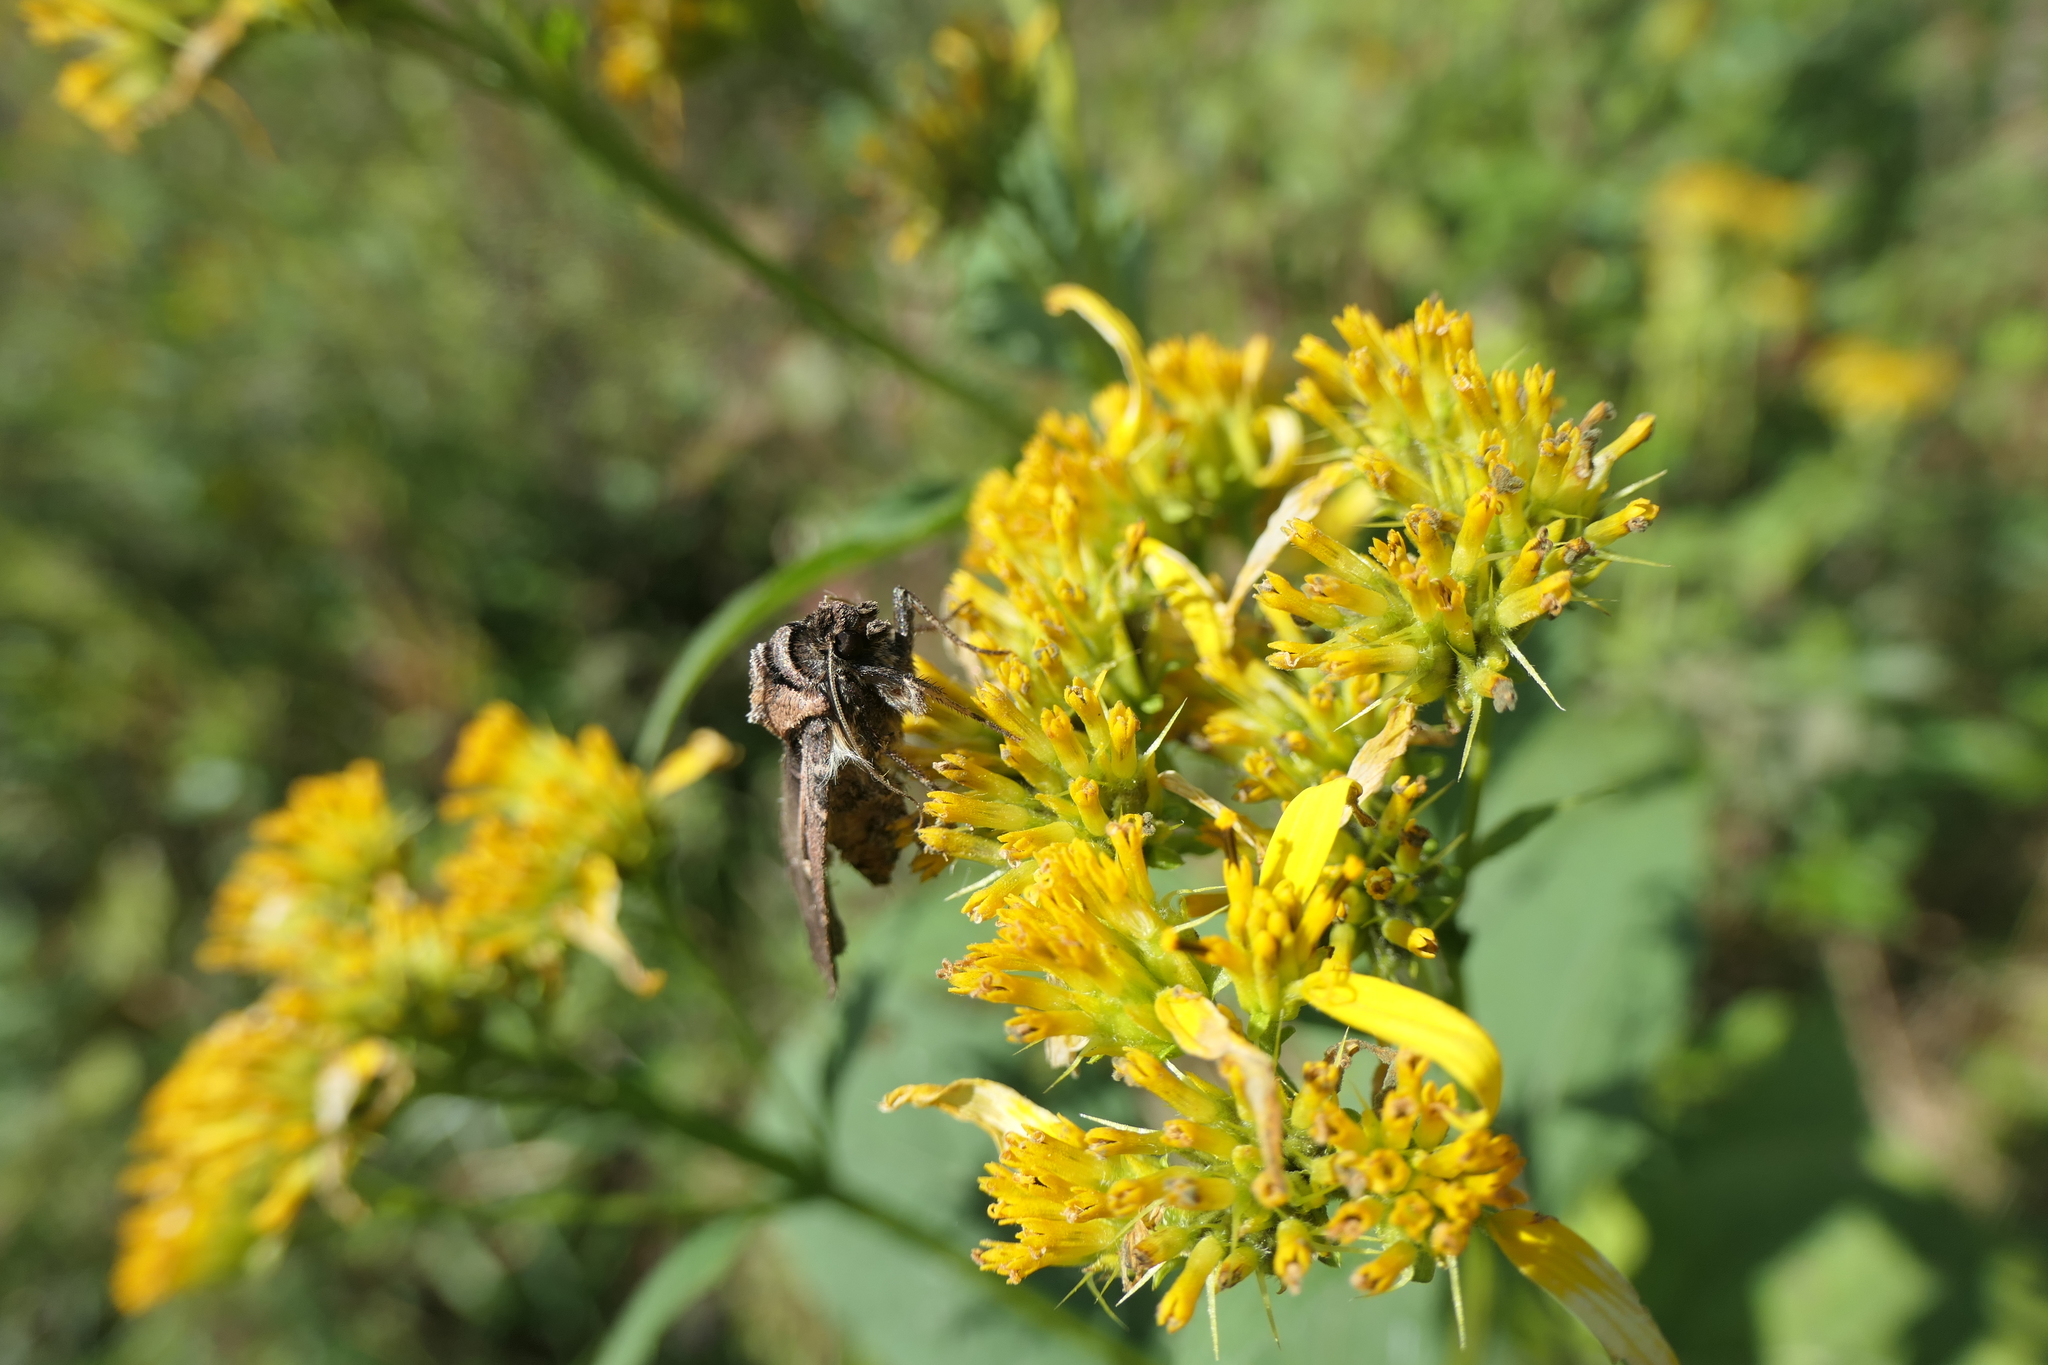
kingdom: Animalia
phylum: Arthropoda
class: Insecta
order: Lepidoptera
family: Noctuidae
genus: Feltia
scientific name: Feltia herilis
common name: Master's dart
